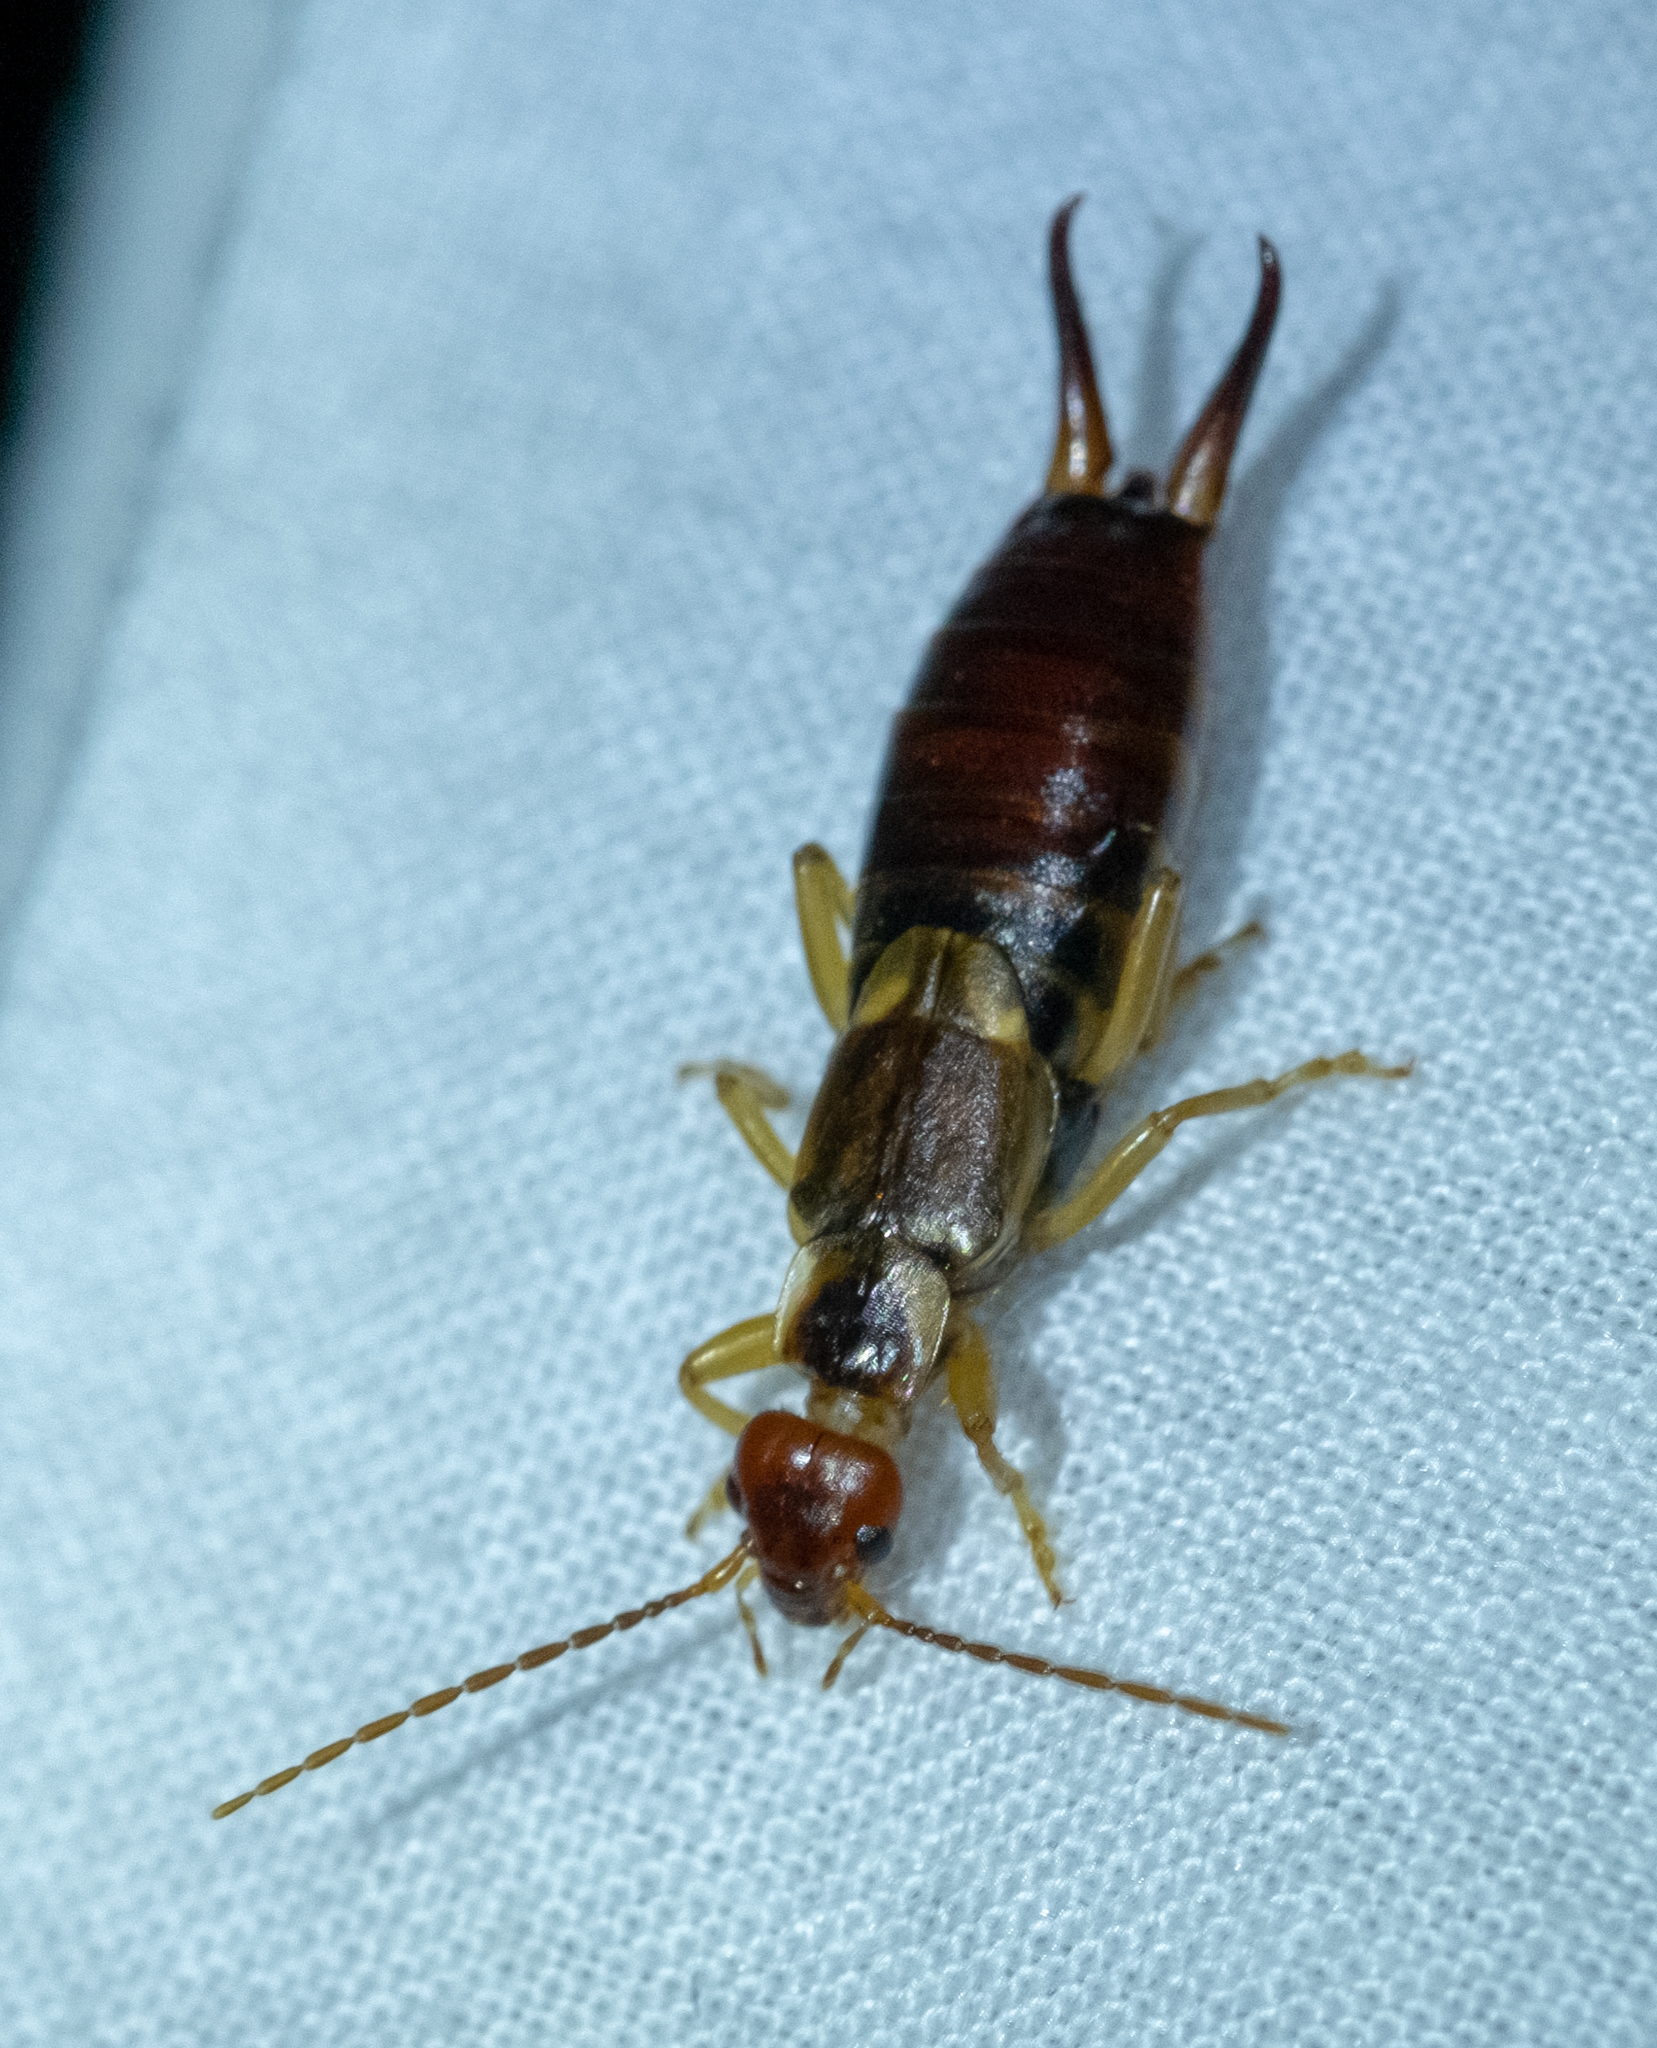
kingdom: Animalia
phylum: Arthropoda
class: Insecta
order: Dermaptera
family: Forficulidae
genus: Forficula
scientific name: Forficula
